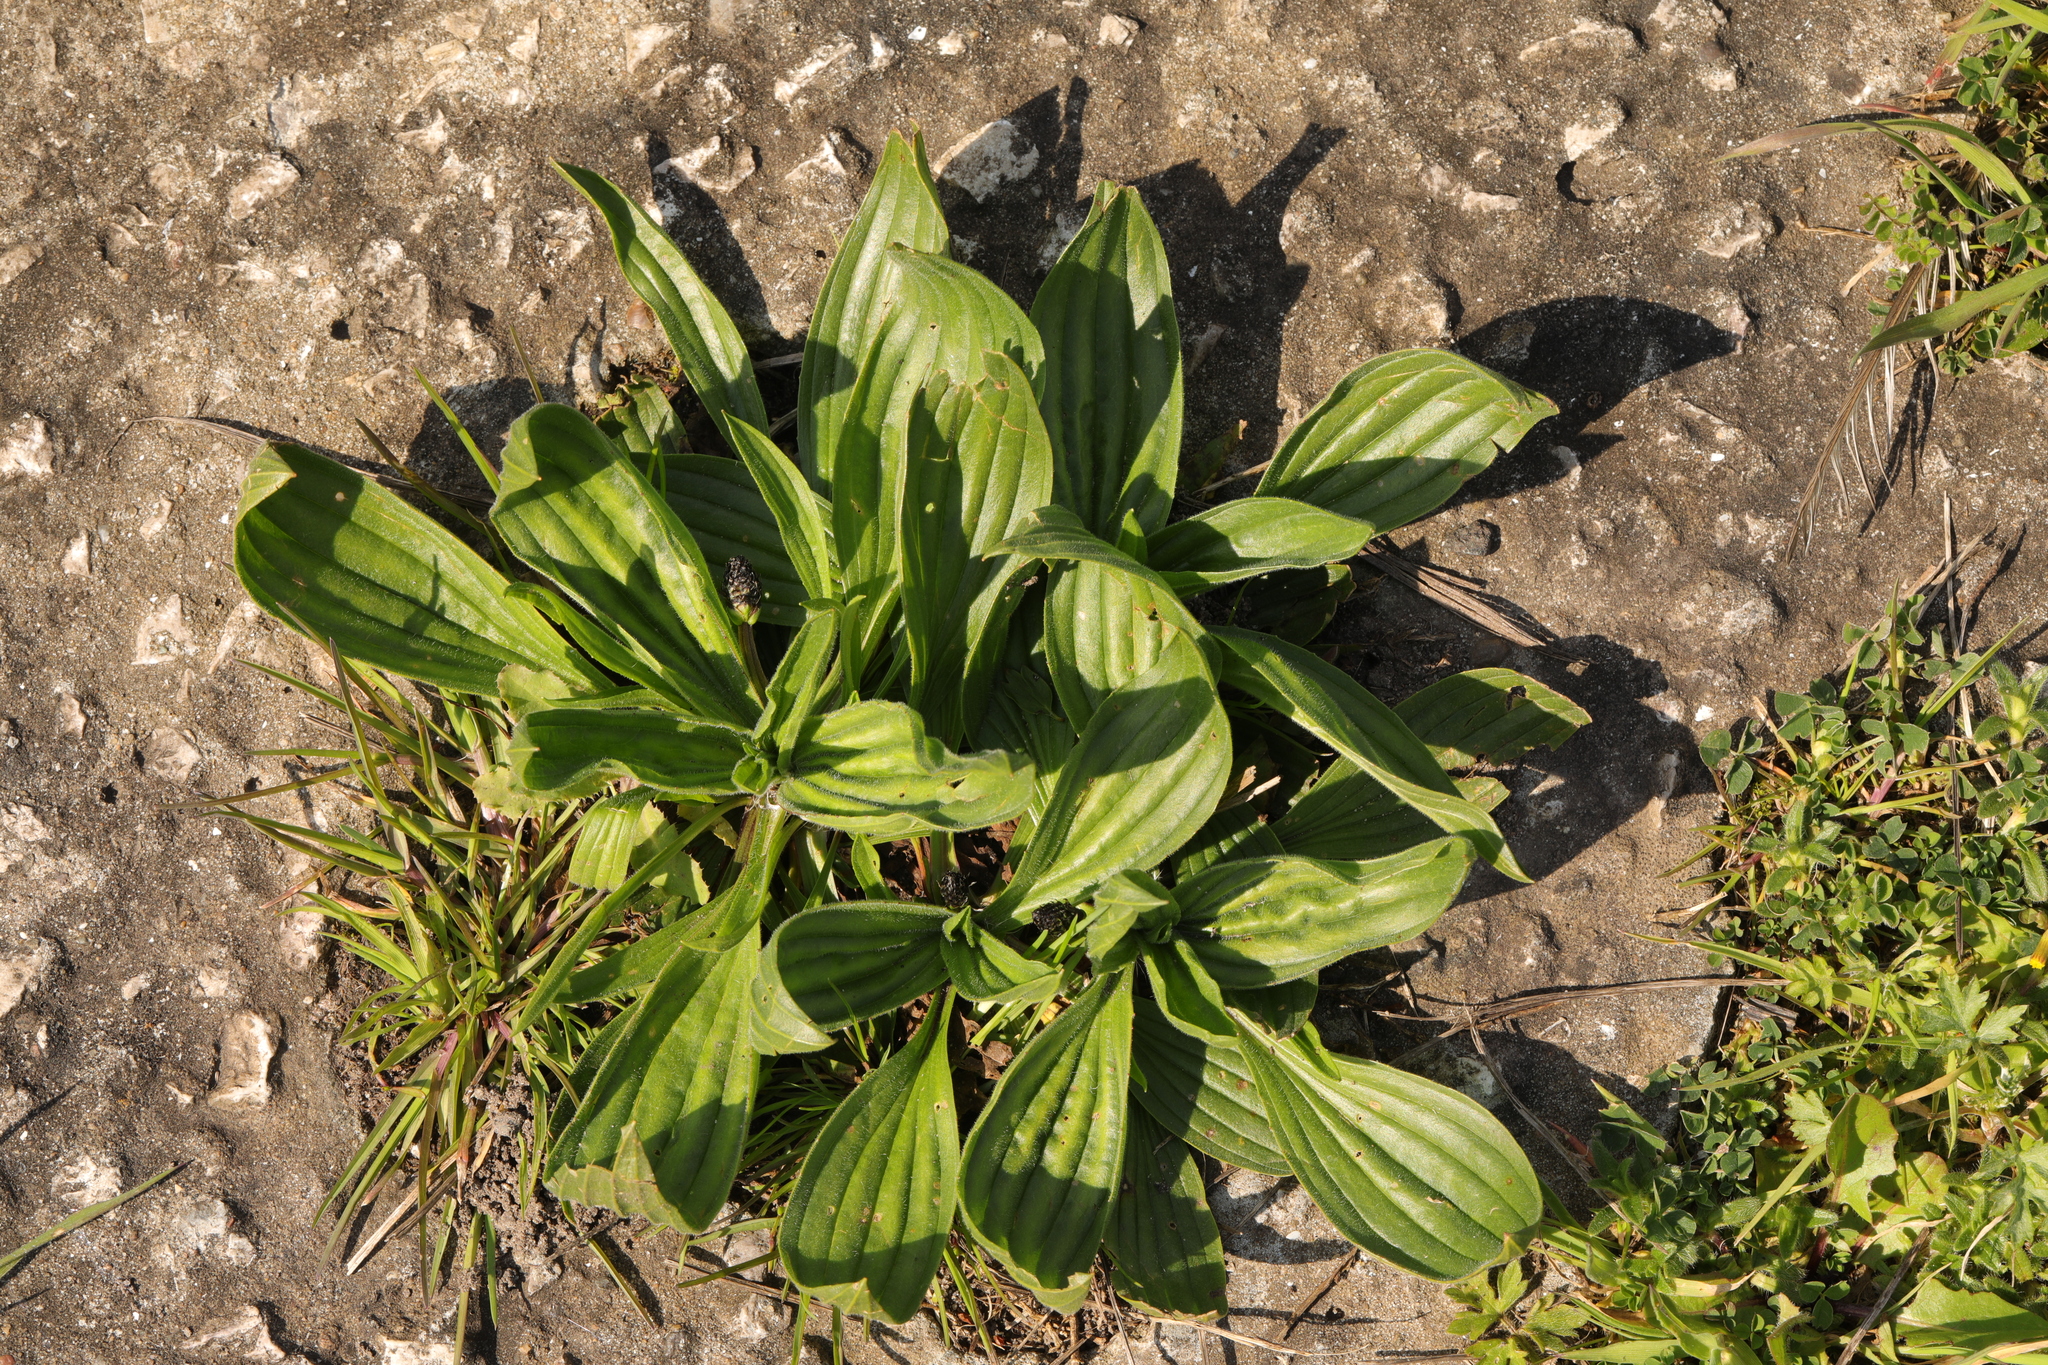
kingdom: Plantae
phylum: Tracheophyta
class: Magnoliopsida
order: Lamiales
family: Plantaginaceae
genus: Plantago
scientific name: Plantago lanceolata
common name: Ribwort plantain
